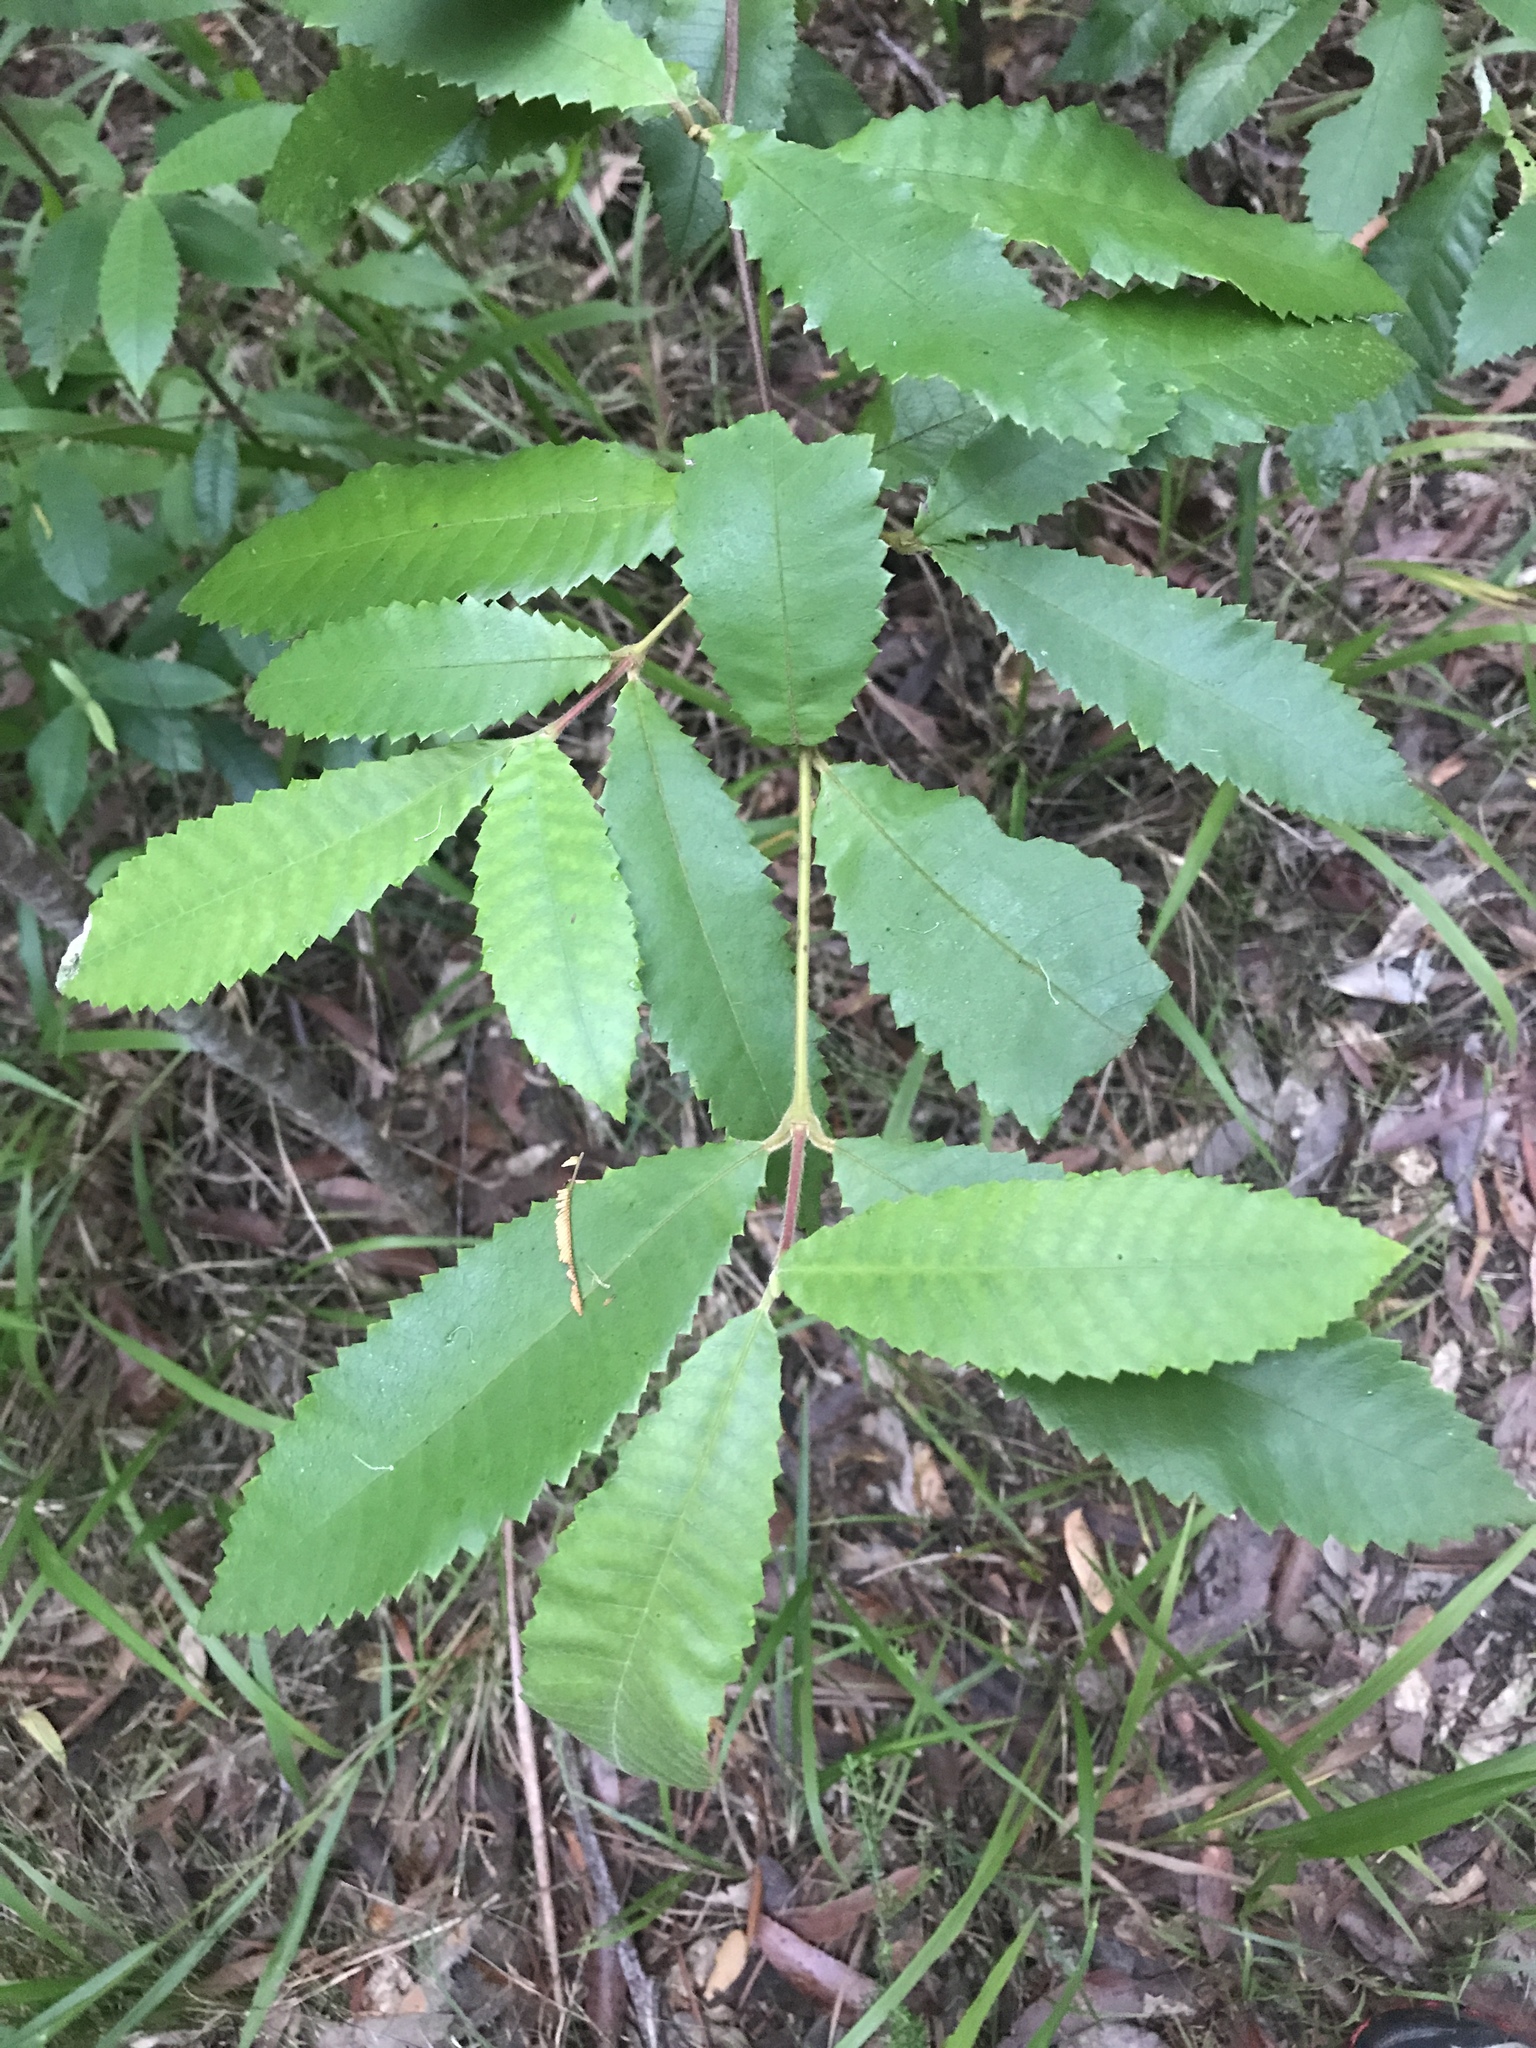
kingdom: Plantae
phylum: Tracheophyta
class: Magnoliopsida
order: Oxalidales
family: Cunoniaceae
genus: Callicoma
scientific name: Callicoma serratifolia
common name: Black wattle
